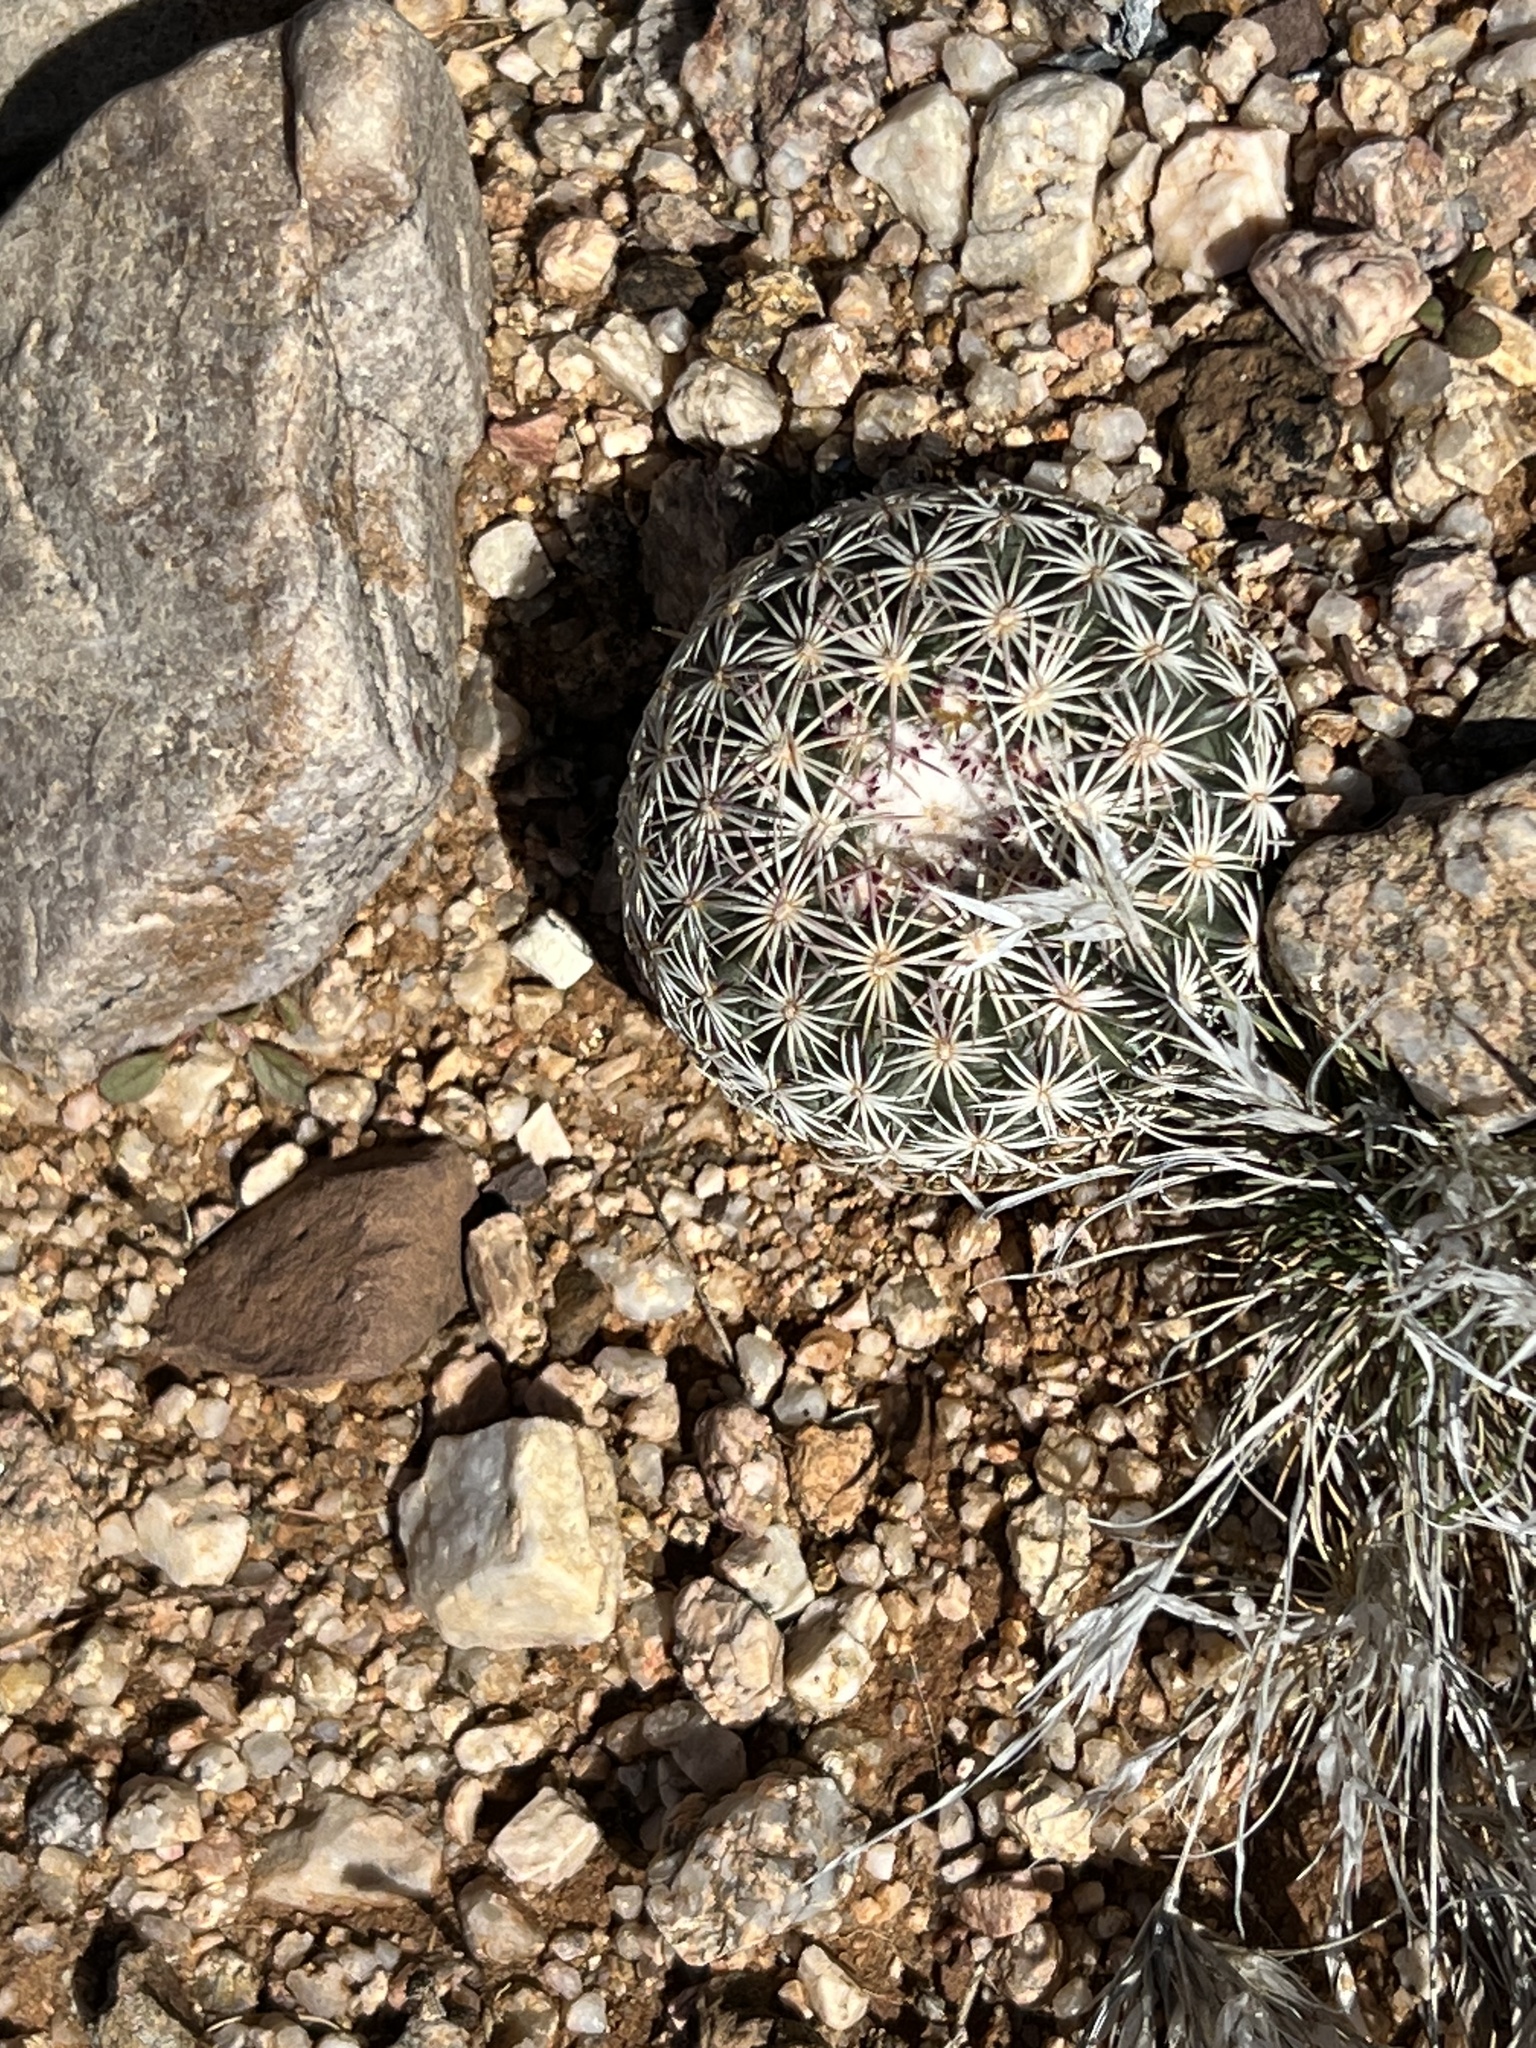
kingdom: Plantae
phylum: Tracheophyta
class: Magnoliopsida
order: Caryophyllales
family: Cactaceae
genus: Sclerocactus
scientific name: Sclerocactus johnsonii
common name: Eight-spine fishhook cactus
